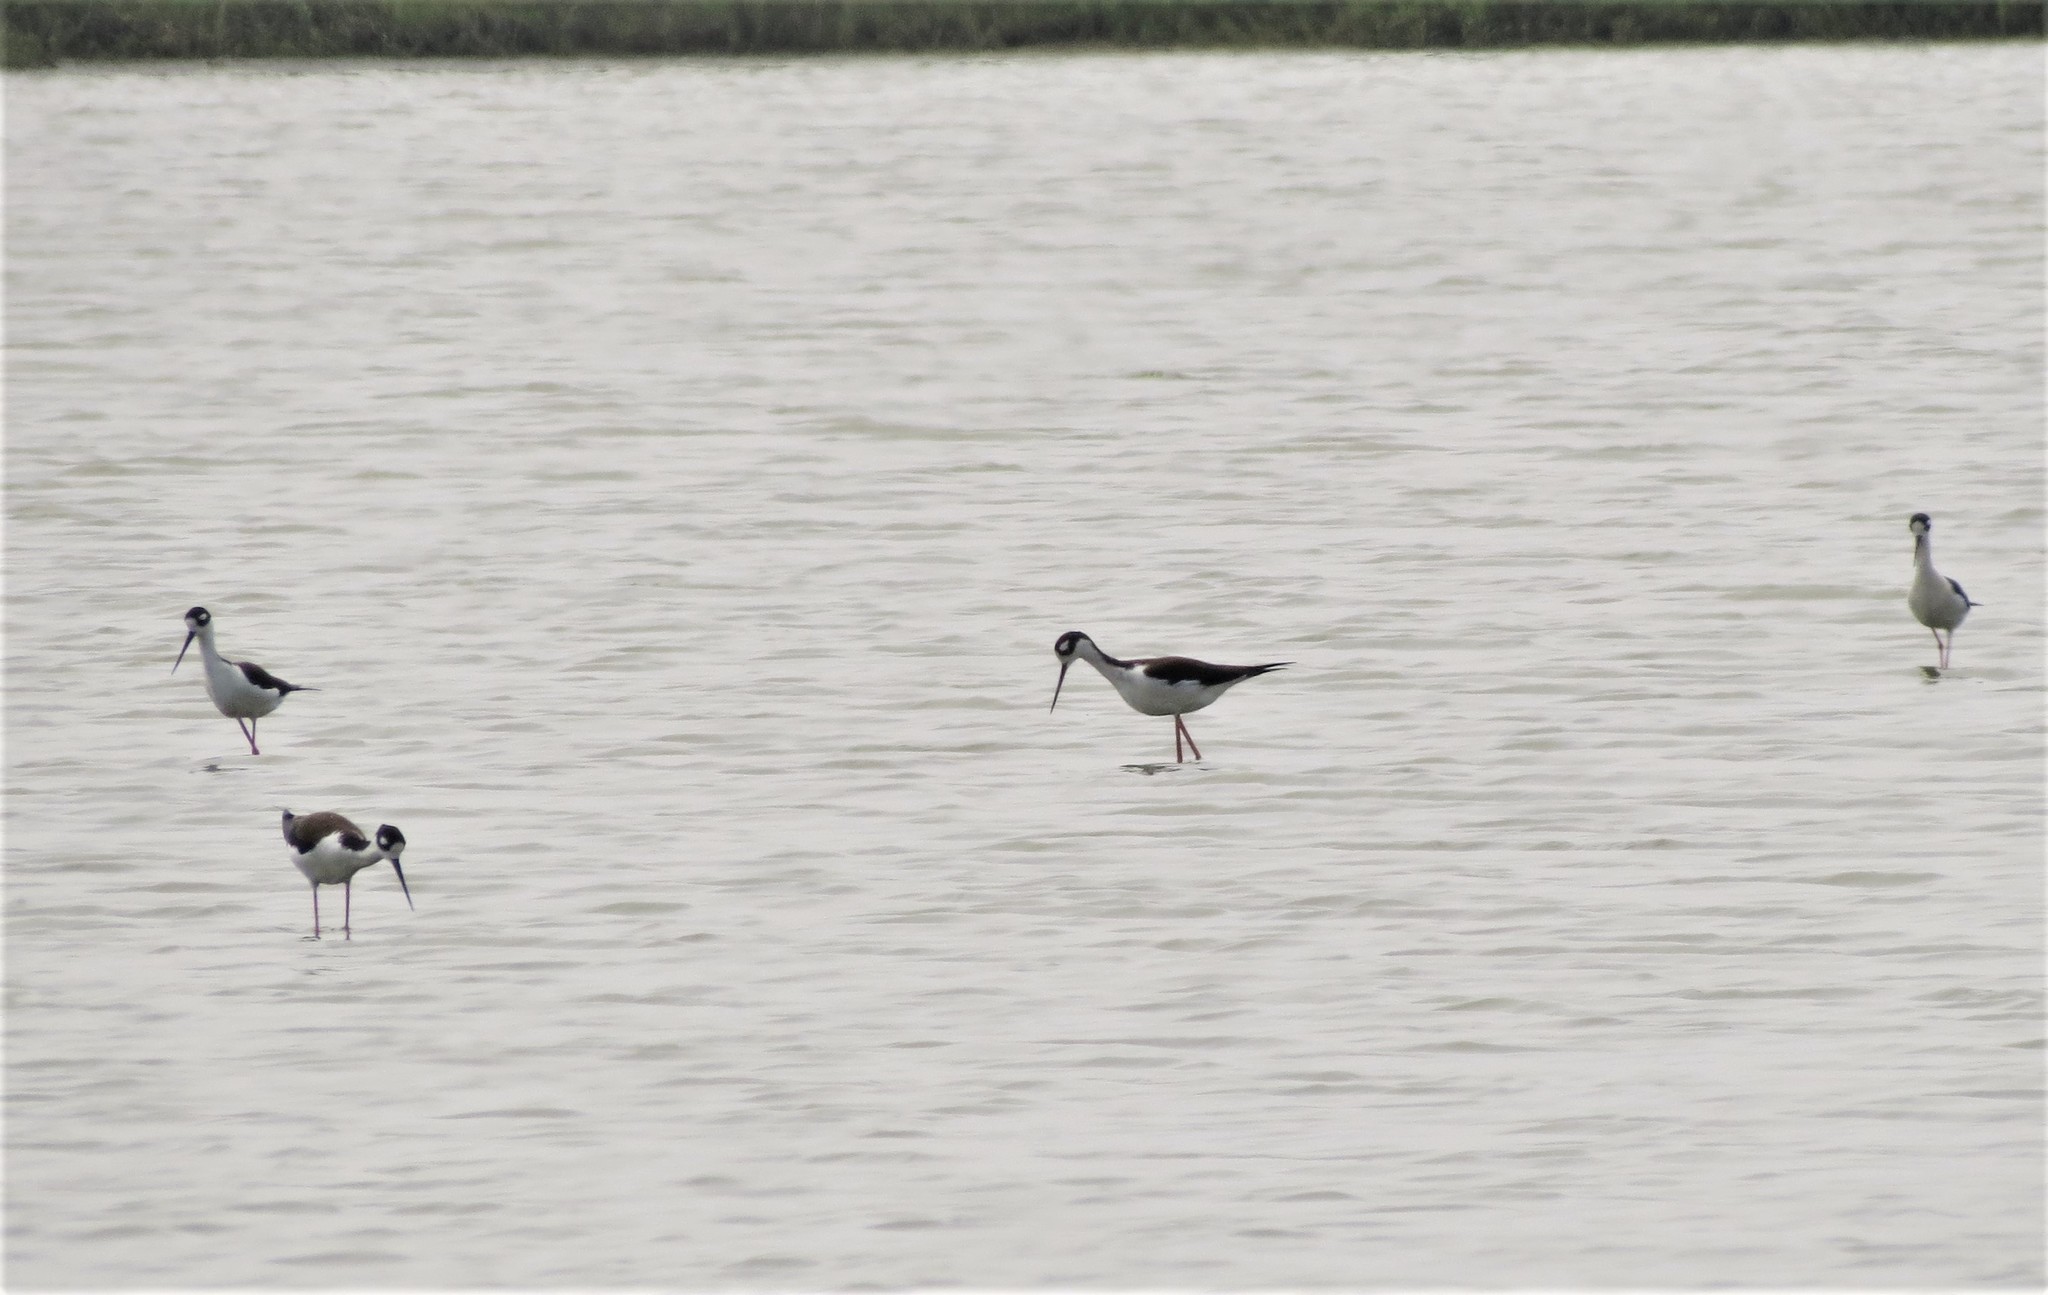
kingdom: Animalia
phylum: Chordata
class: Aves
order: Charadriiformes
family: Recurvirostridae
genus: Himantopus
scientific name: Himantopus mexicanus
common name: Black-necked stilt
